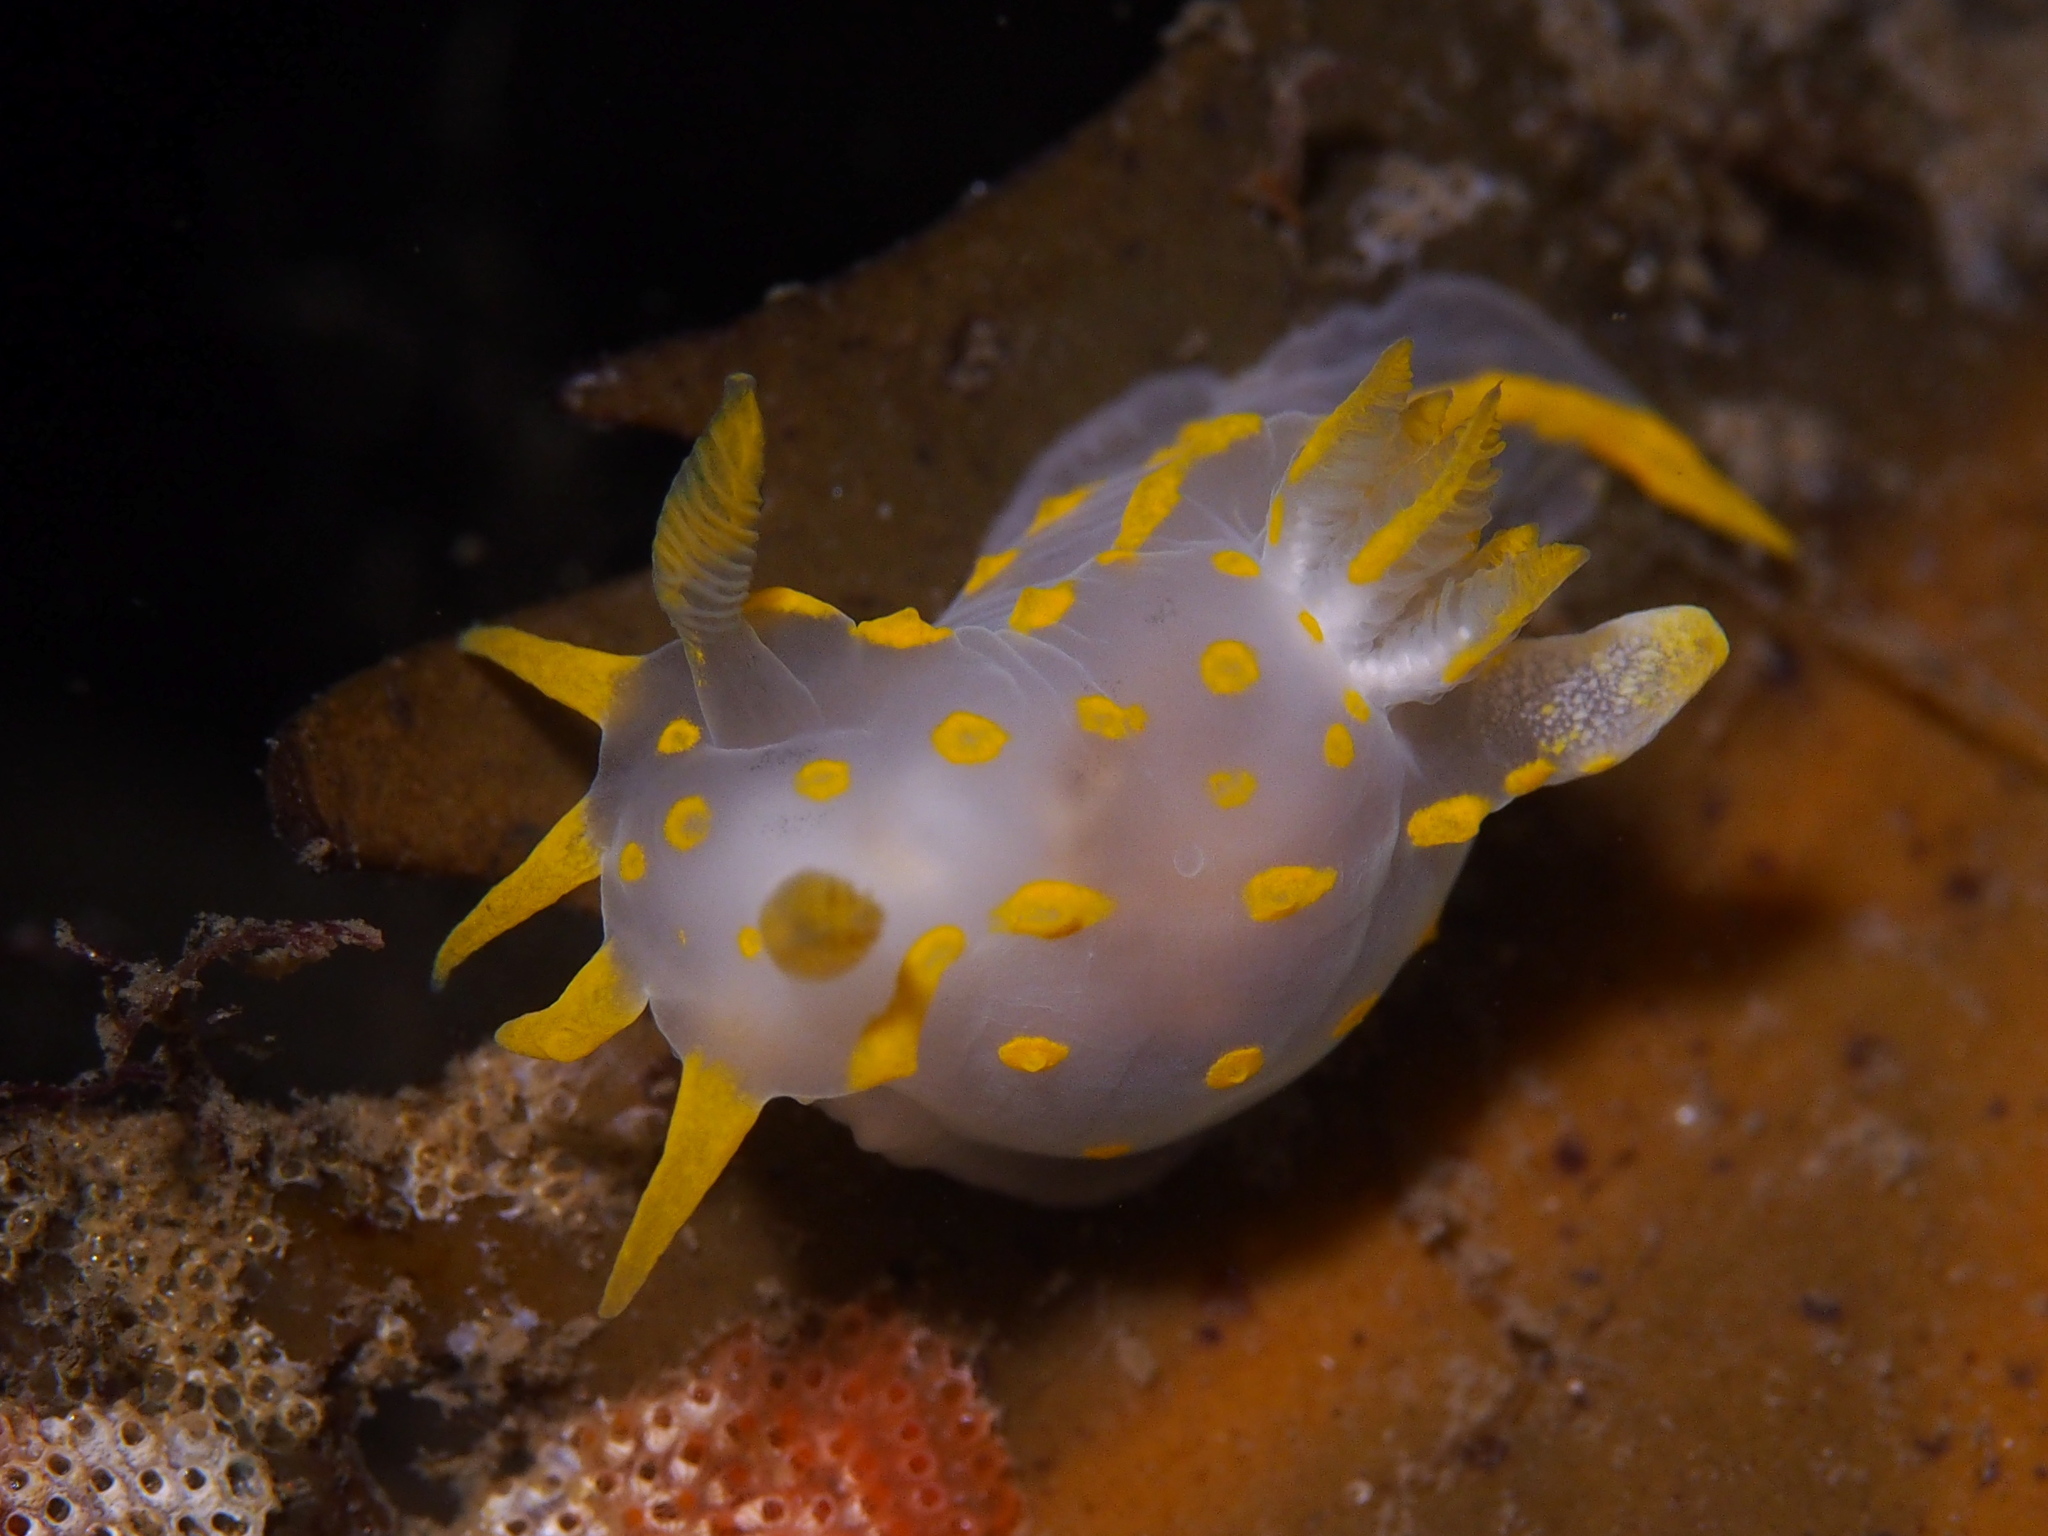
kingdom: Animalia
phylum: Mollusca
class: Gastropoda
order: Nudibranchia
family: Polyceridae
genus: Polycera
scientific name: Polycera quadrilineata
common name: Four-striped polycera
